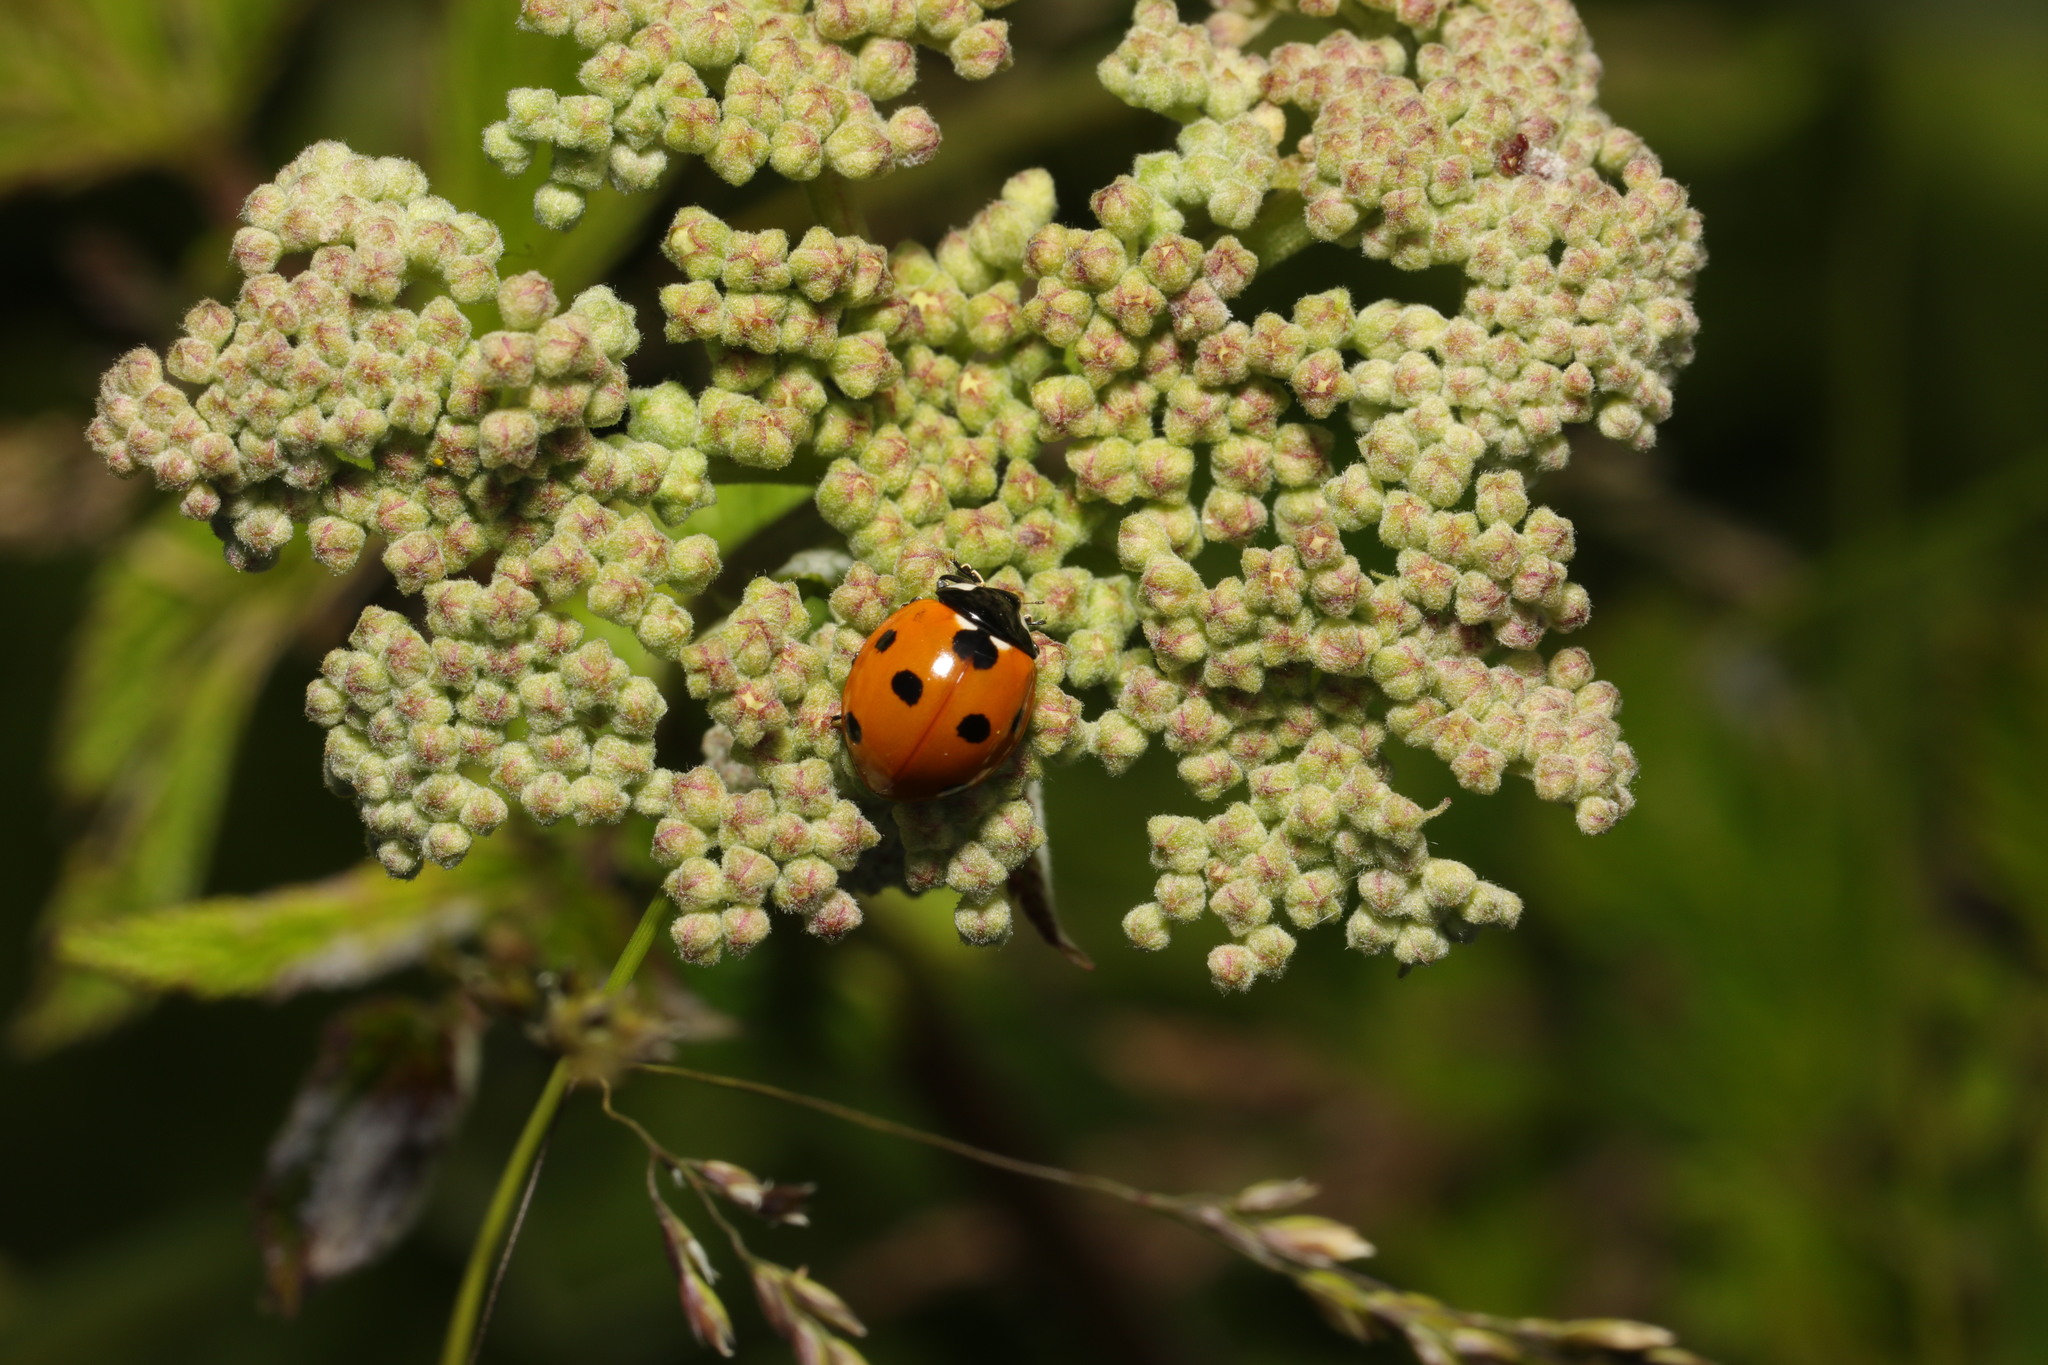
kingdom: Animalia
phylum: Arthropoda
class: Insecta
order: Coleoptera
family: Coccinellidae
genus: Coccinella
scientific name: Coccinella septempunctata
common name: Sevenspotted lady beetle
